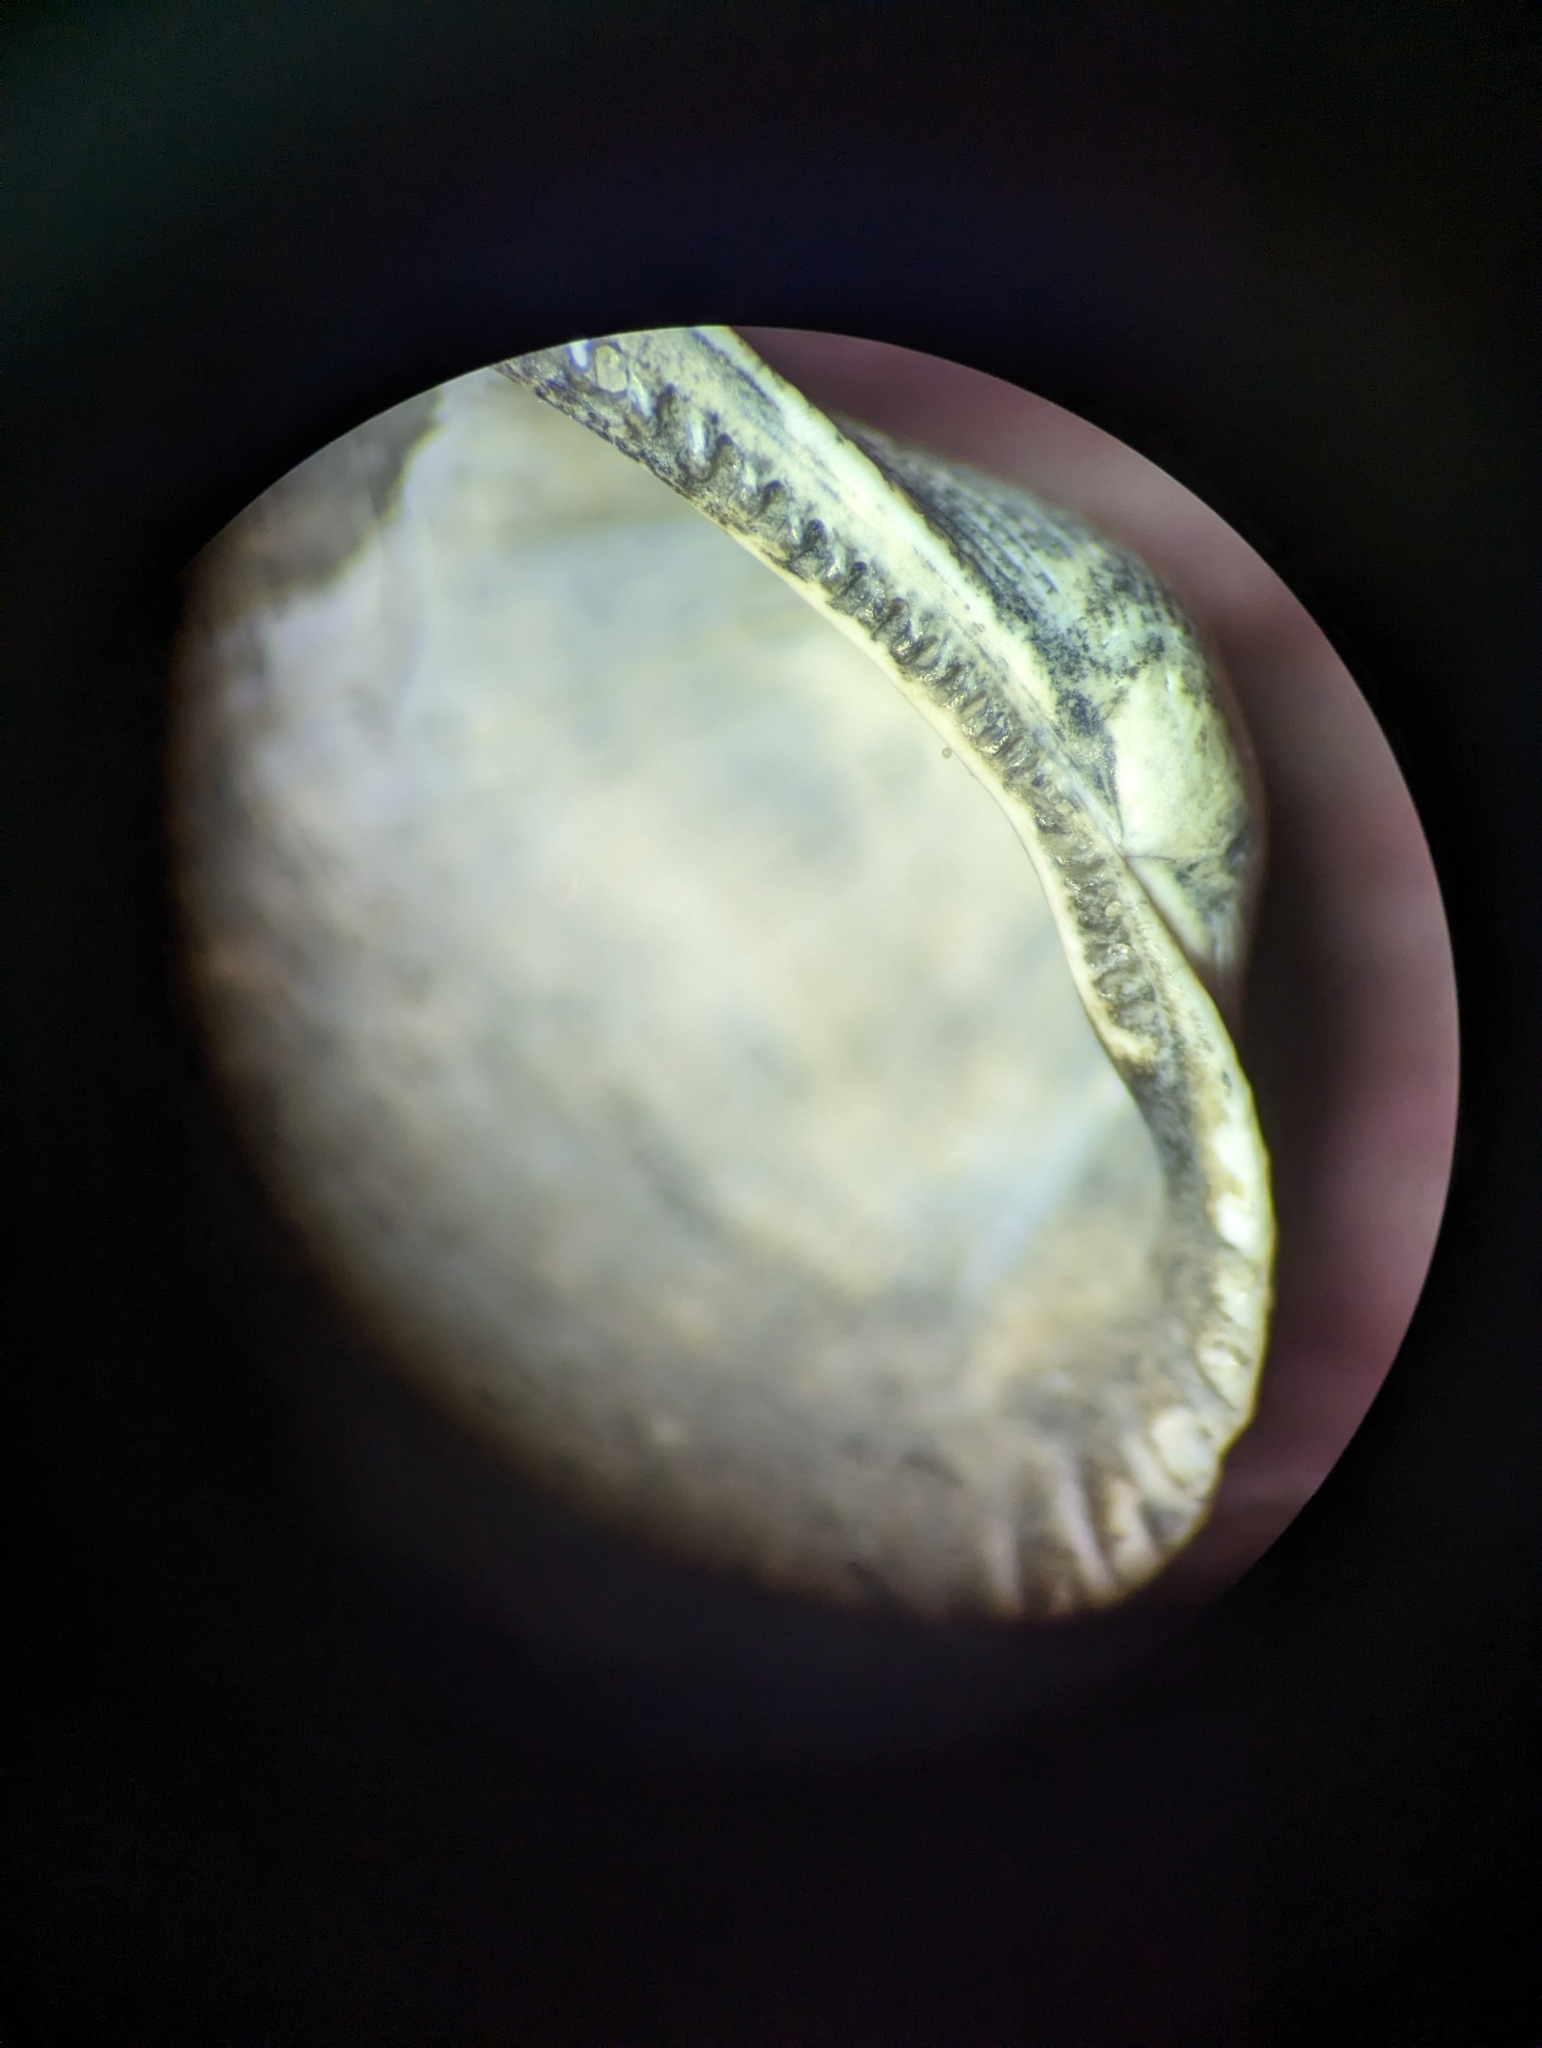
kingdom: Animalia
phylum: Mollusca
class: Bivalvia
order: Arcida
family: Arcidae
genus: Lunarca
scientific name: Lunarca ovalis
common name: Blood ark
